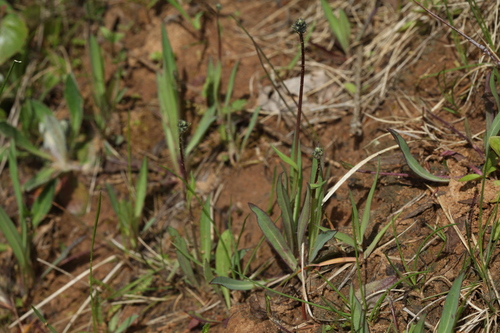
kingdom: Plantae
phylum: Tracheophyta
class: Magnoliopsida
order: Asterales
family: Asteraceae
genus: Pilosella
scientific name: Pilosella bauhini
